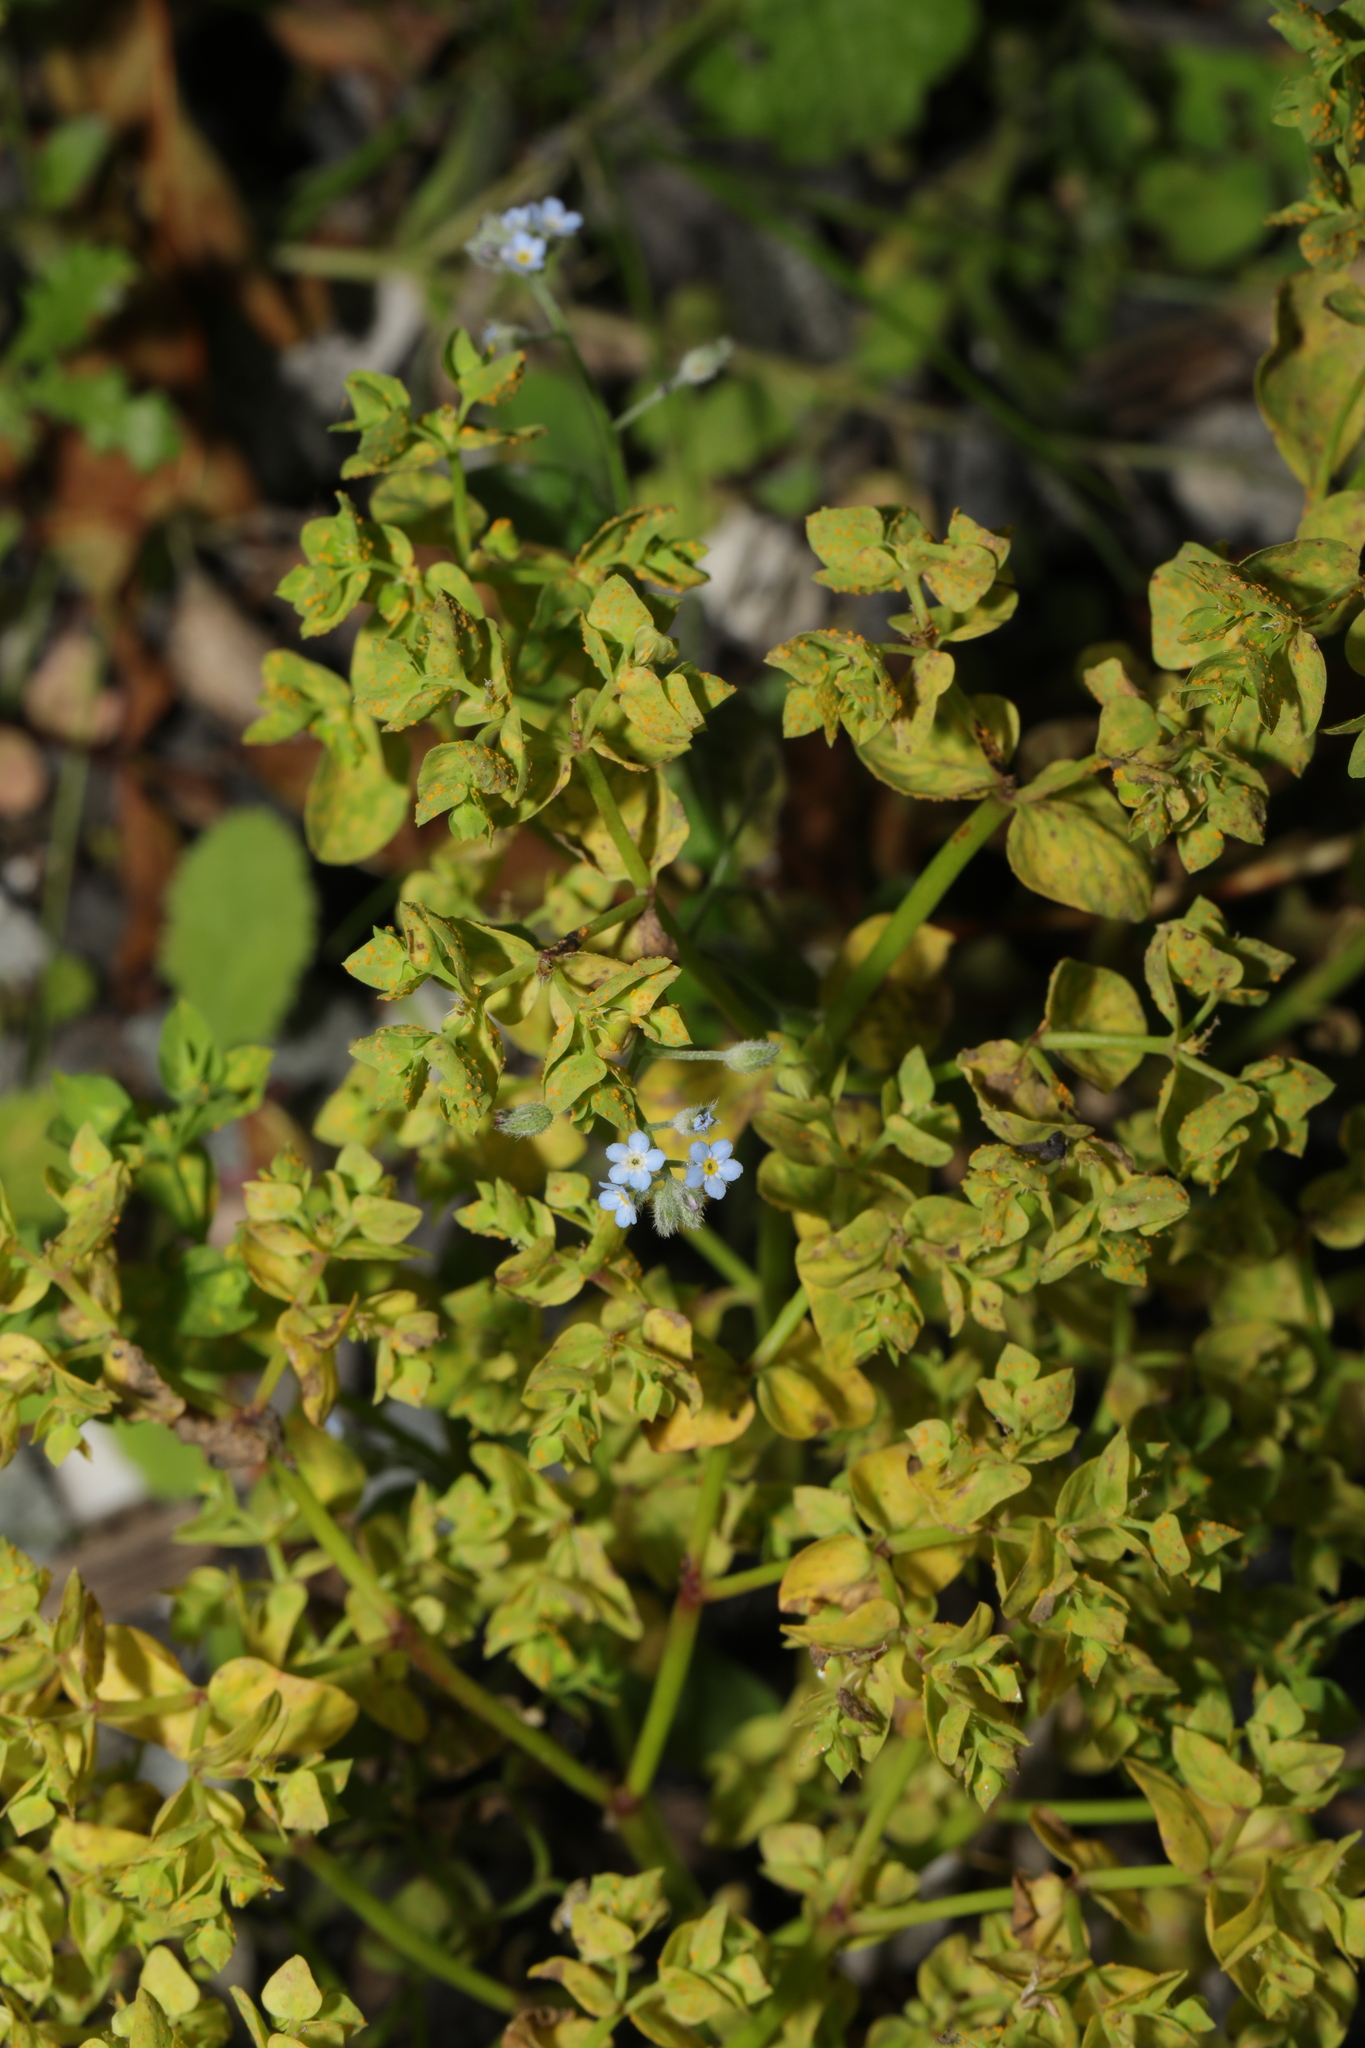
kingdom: Plantae
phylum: Tracheophyta
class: Magnoliopsida
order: Malpighiales
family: Euphorbiaceae
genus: Euphorbia
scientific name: Euphorbia peplus
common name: Petty spurge
